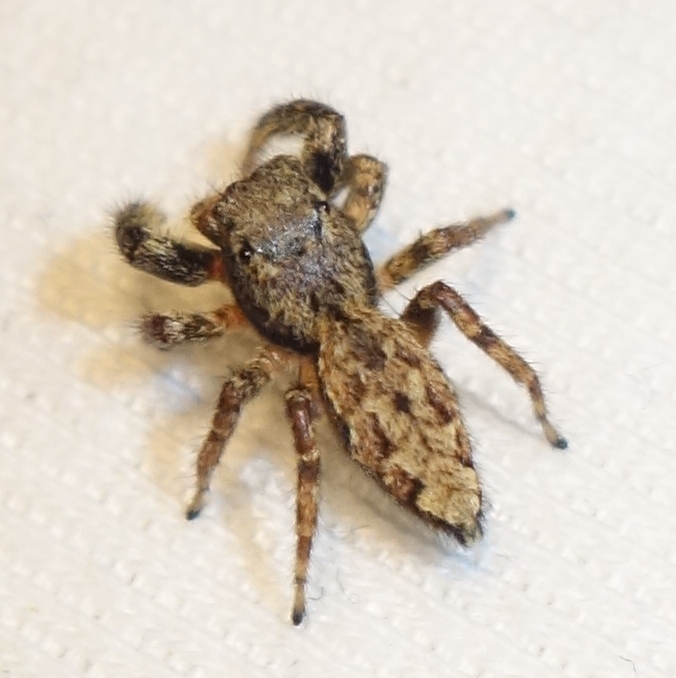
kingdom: Animalia
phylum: Arthropoda
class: Arachnida
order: Araneae
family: Salticidae
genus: Marpissa
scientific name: Marpissa muscosa
